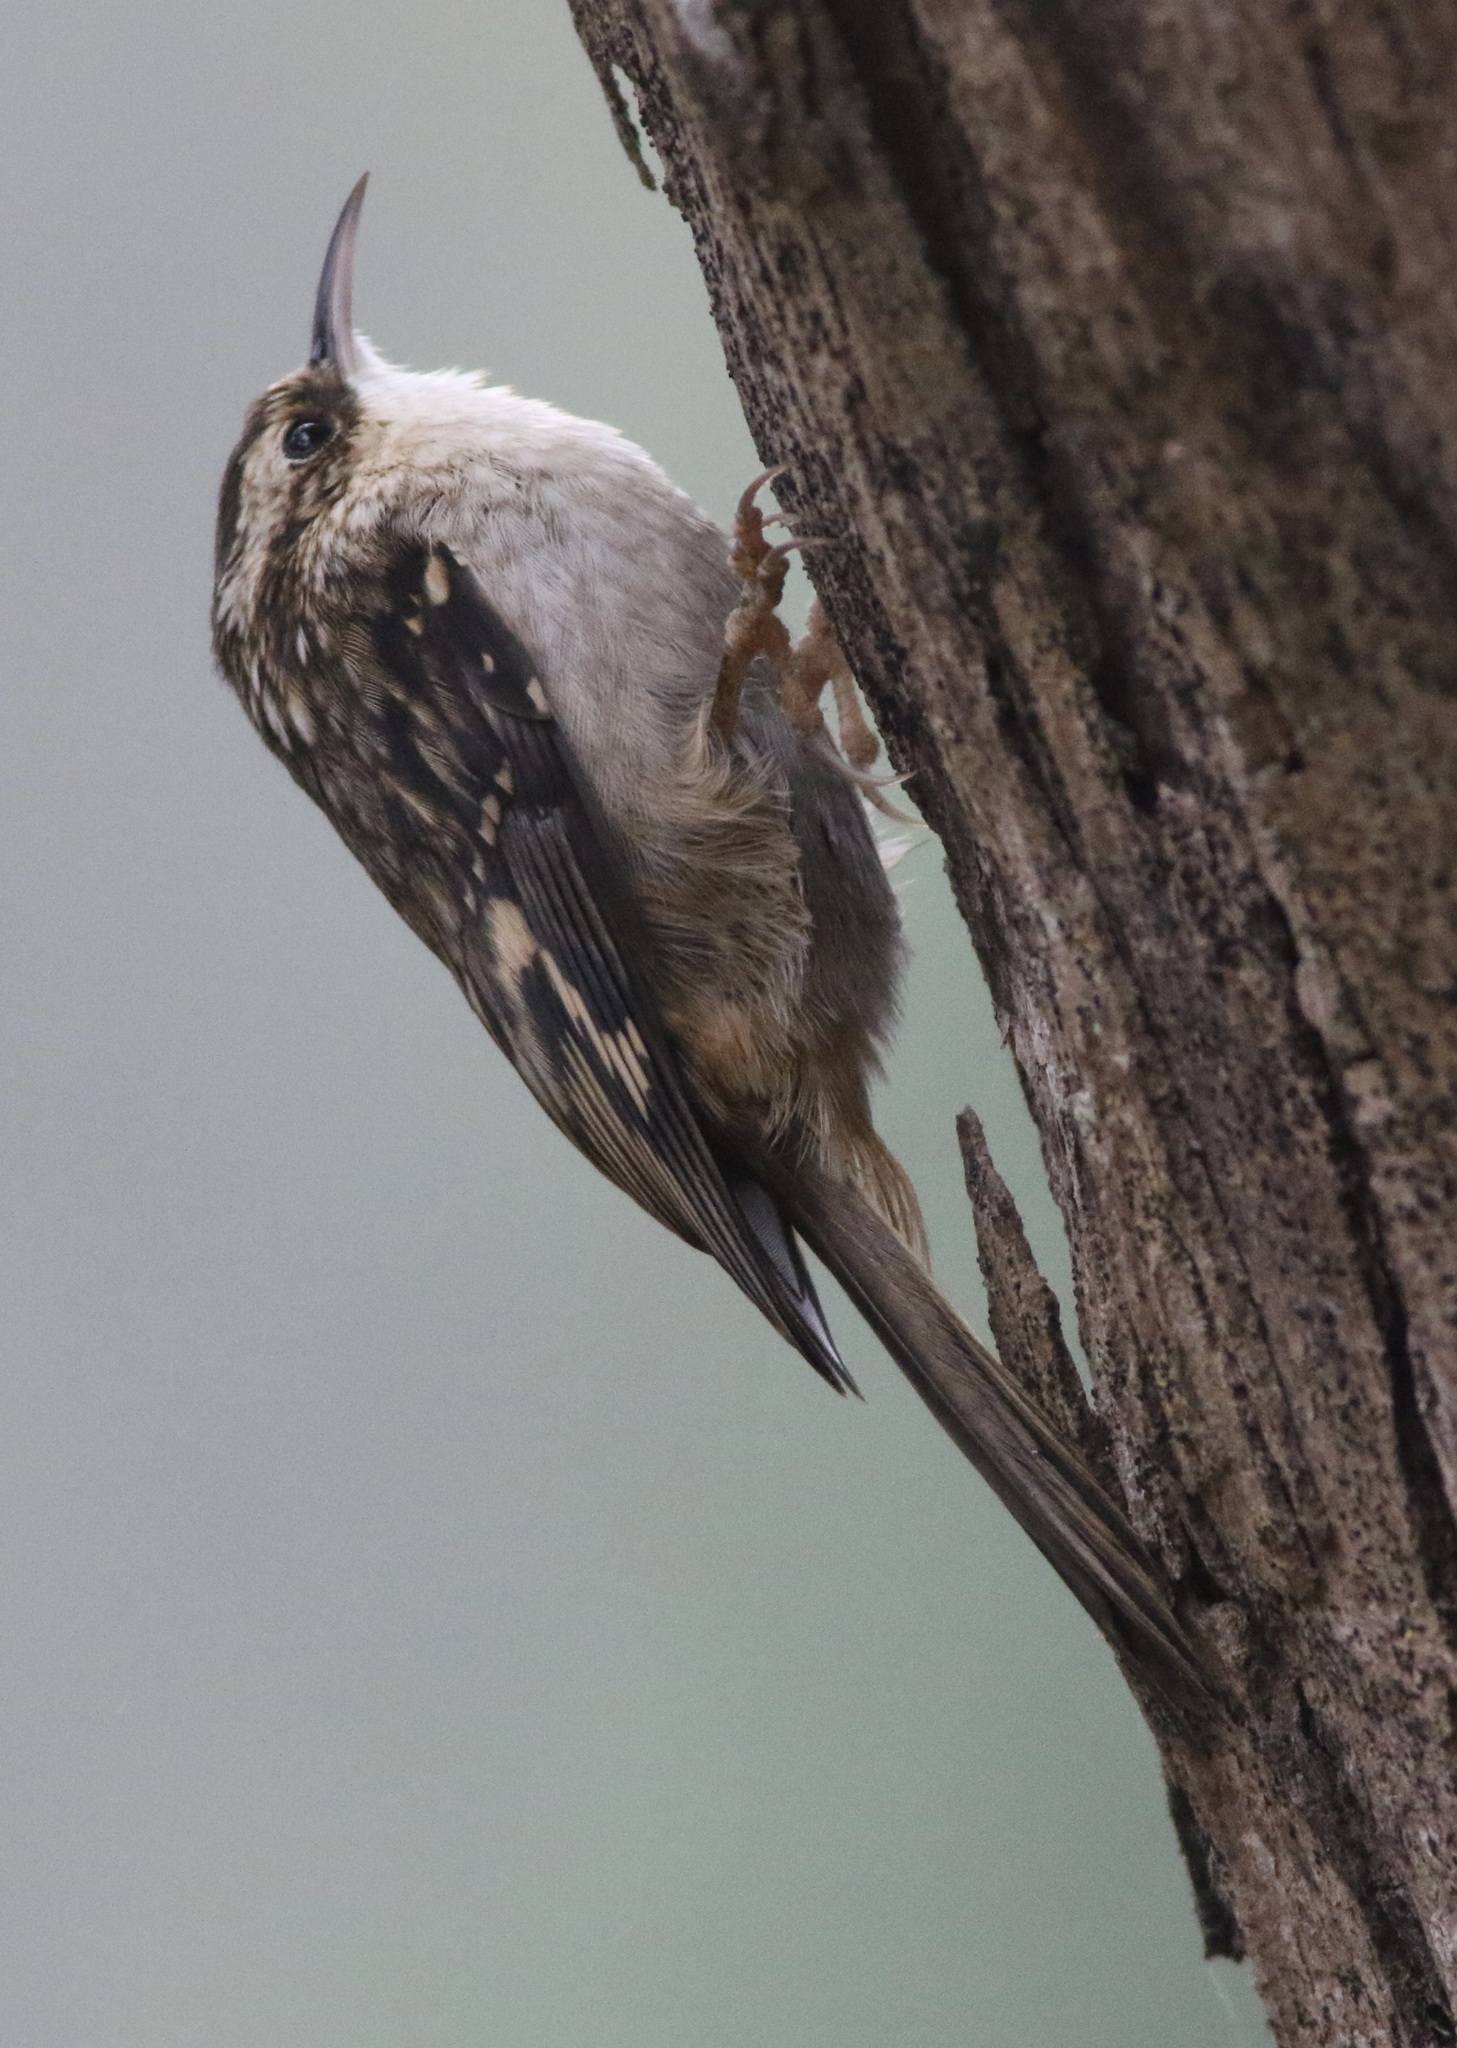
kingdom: Animalia
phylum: Chordata
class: Aves
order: Passeriformes
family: Certhiidae
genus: Certhia
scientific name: Certhia americana
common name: Brown creeper
